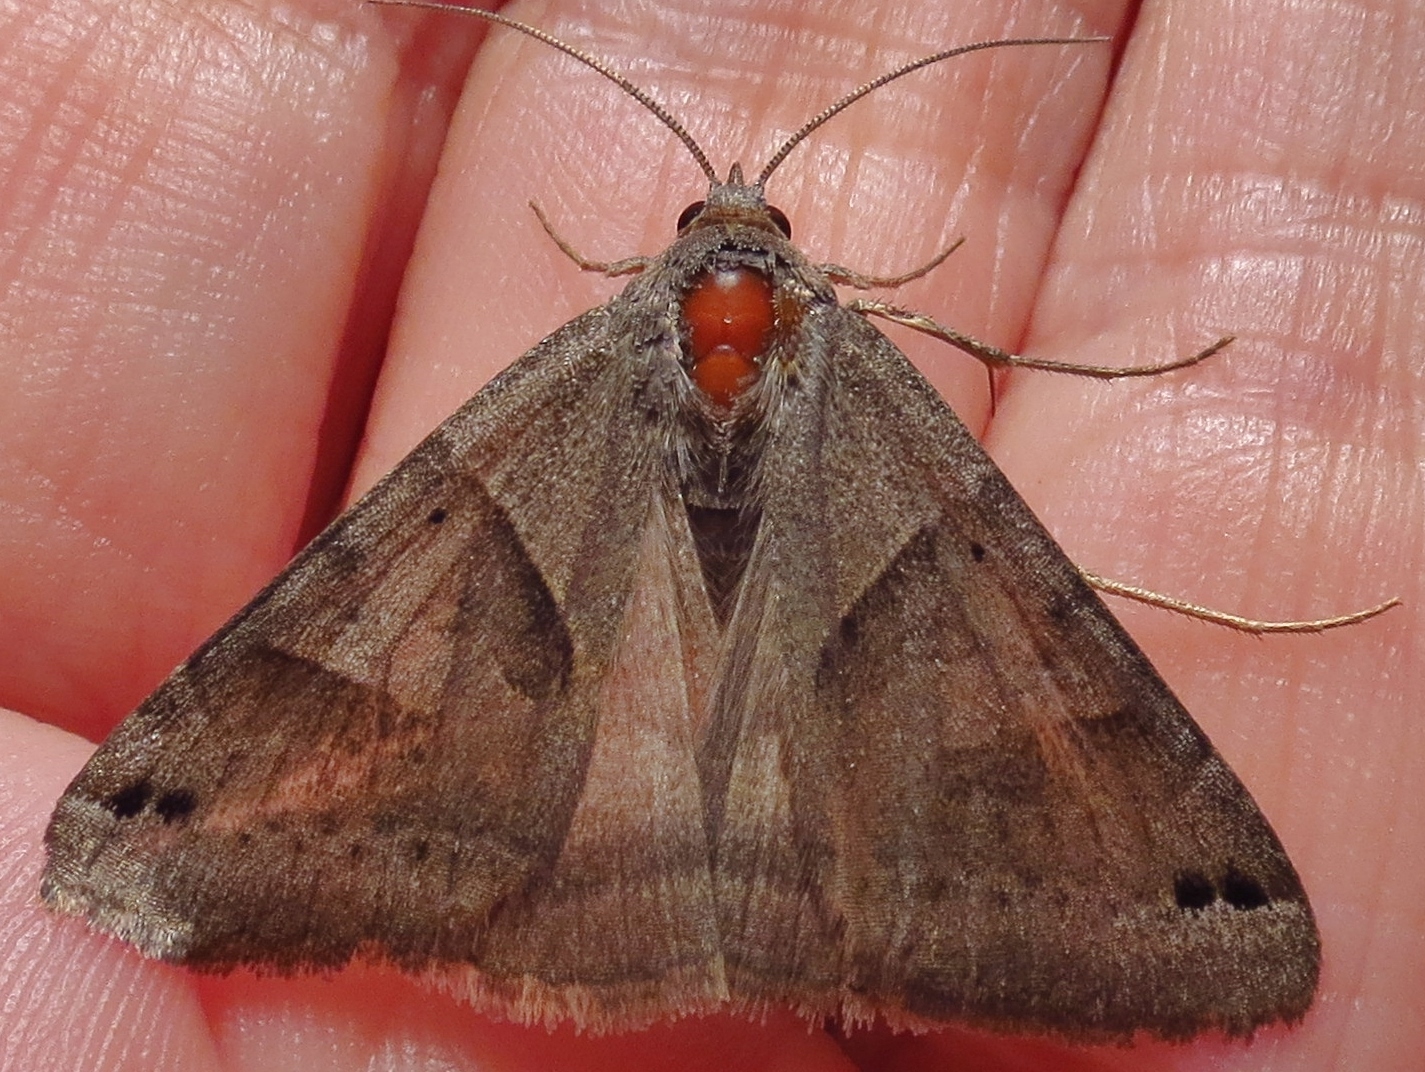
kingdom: Animalia
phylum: Arthropoda
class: Insecta
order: Lepidoptera
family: Erebidae
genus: Caenurgina
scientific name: Caenurgina erechtea
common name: Forage looper moth
